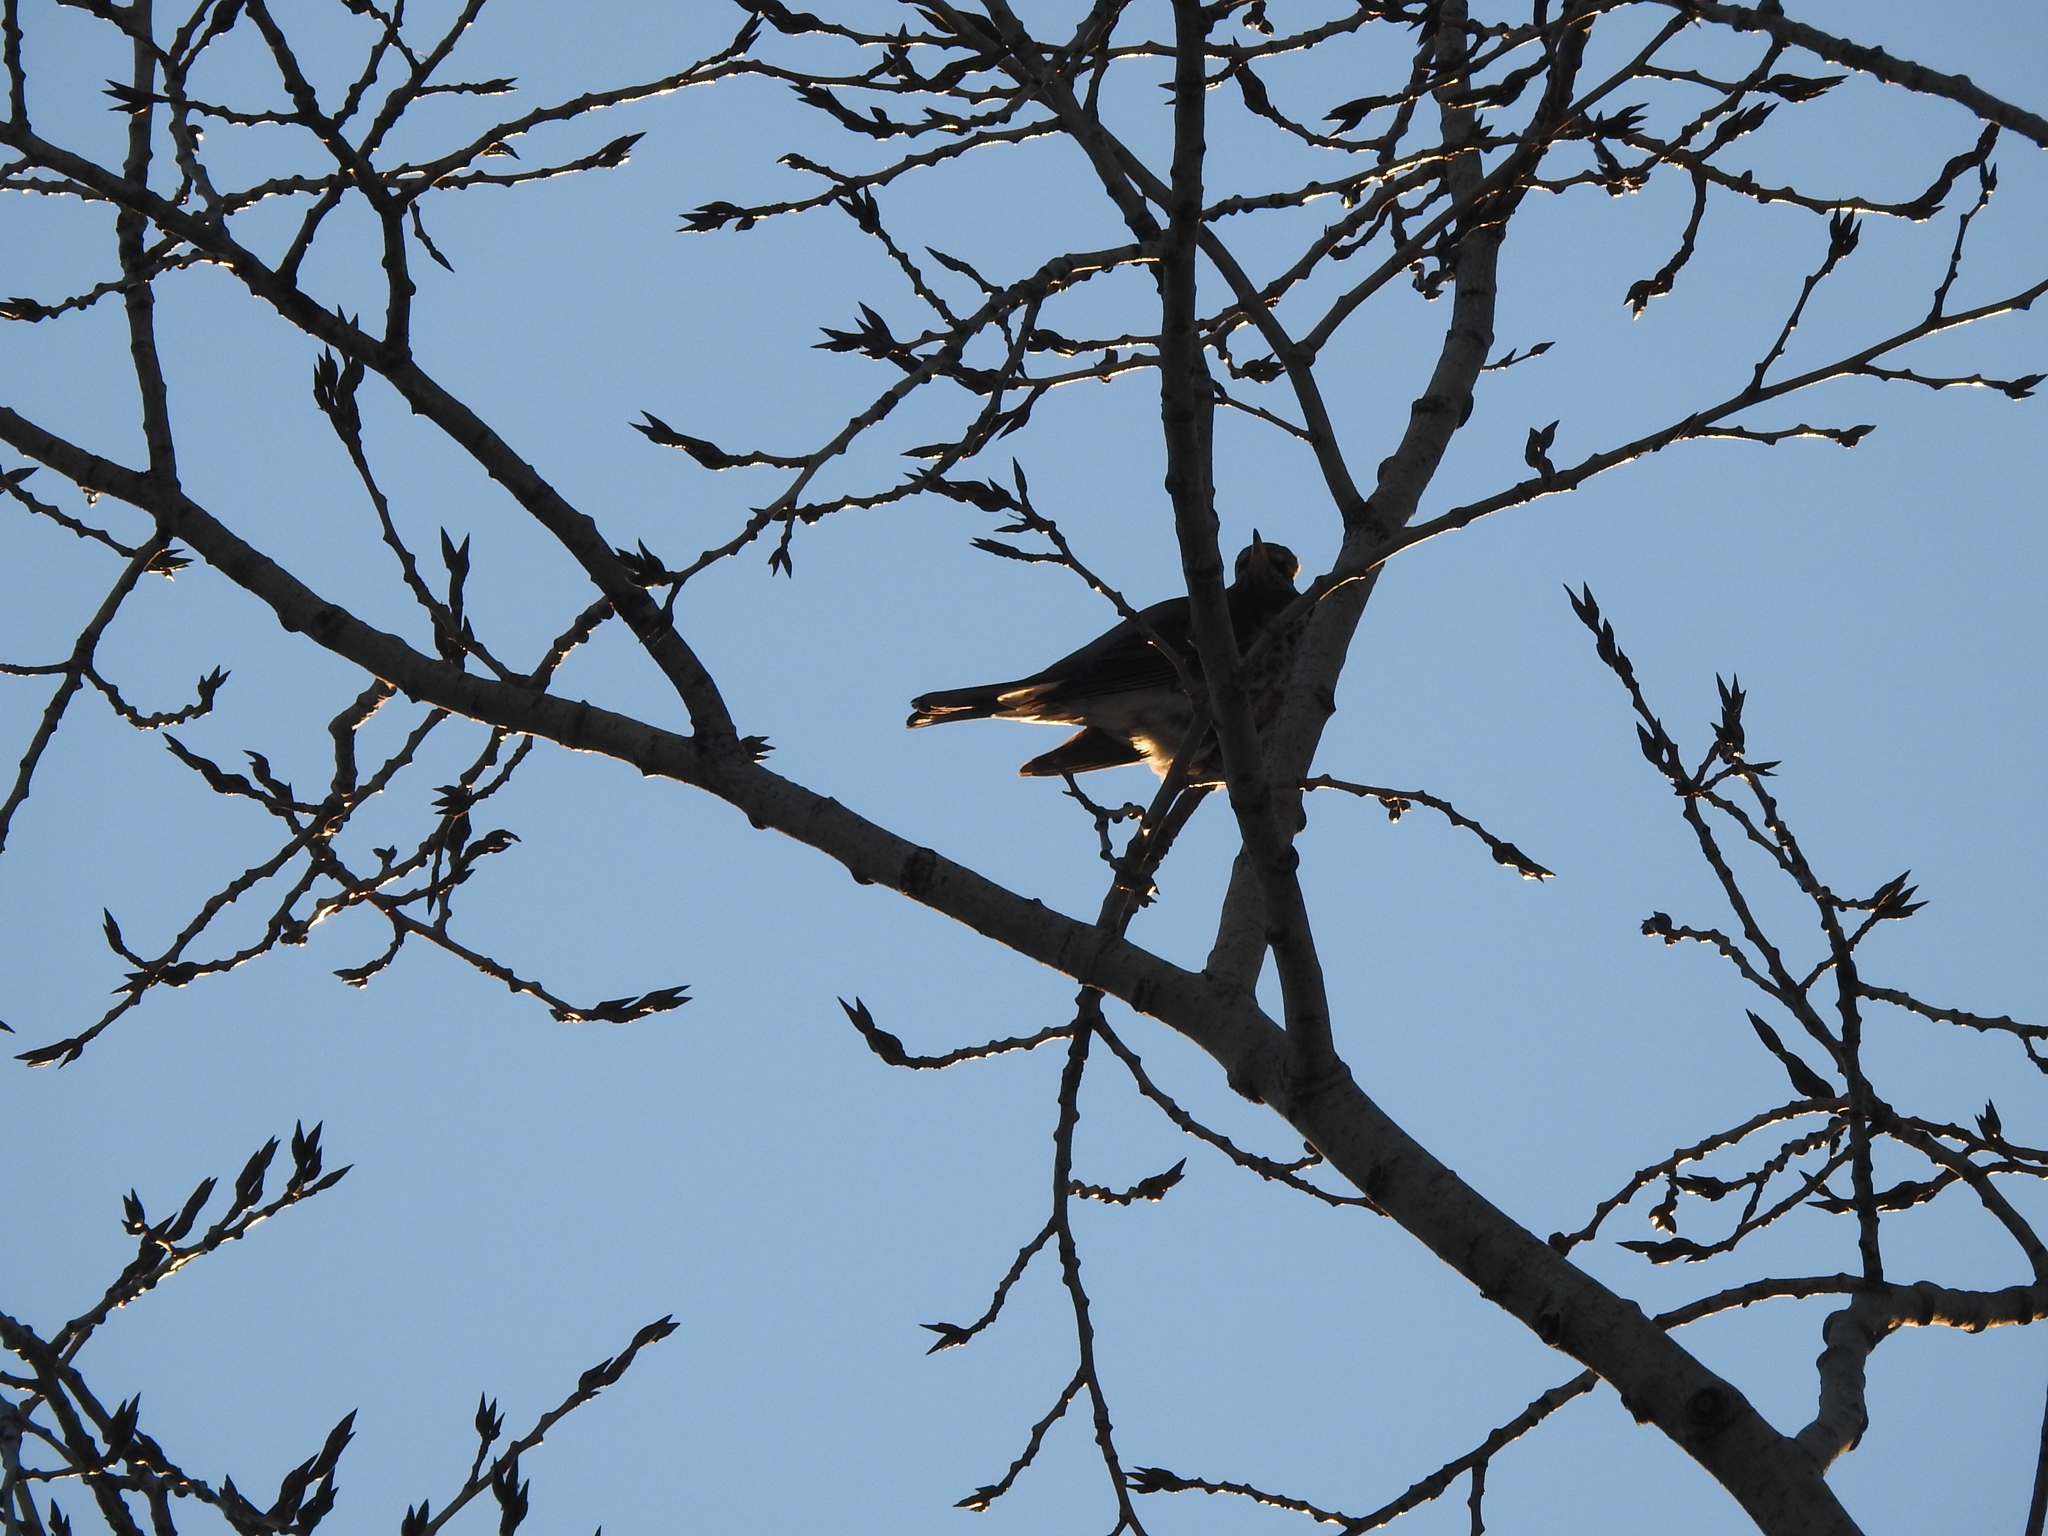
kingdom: Animalia
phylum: Chordata
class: Aves
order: Passeriformes
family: Turdidae
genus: Turdus
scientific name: Turdus pilaris
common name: Fieldfare
